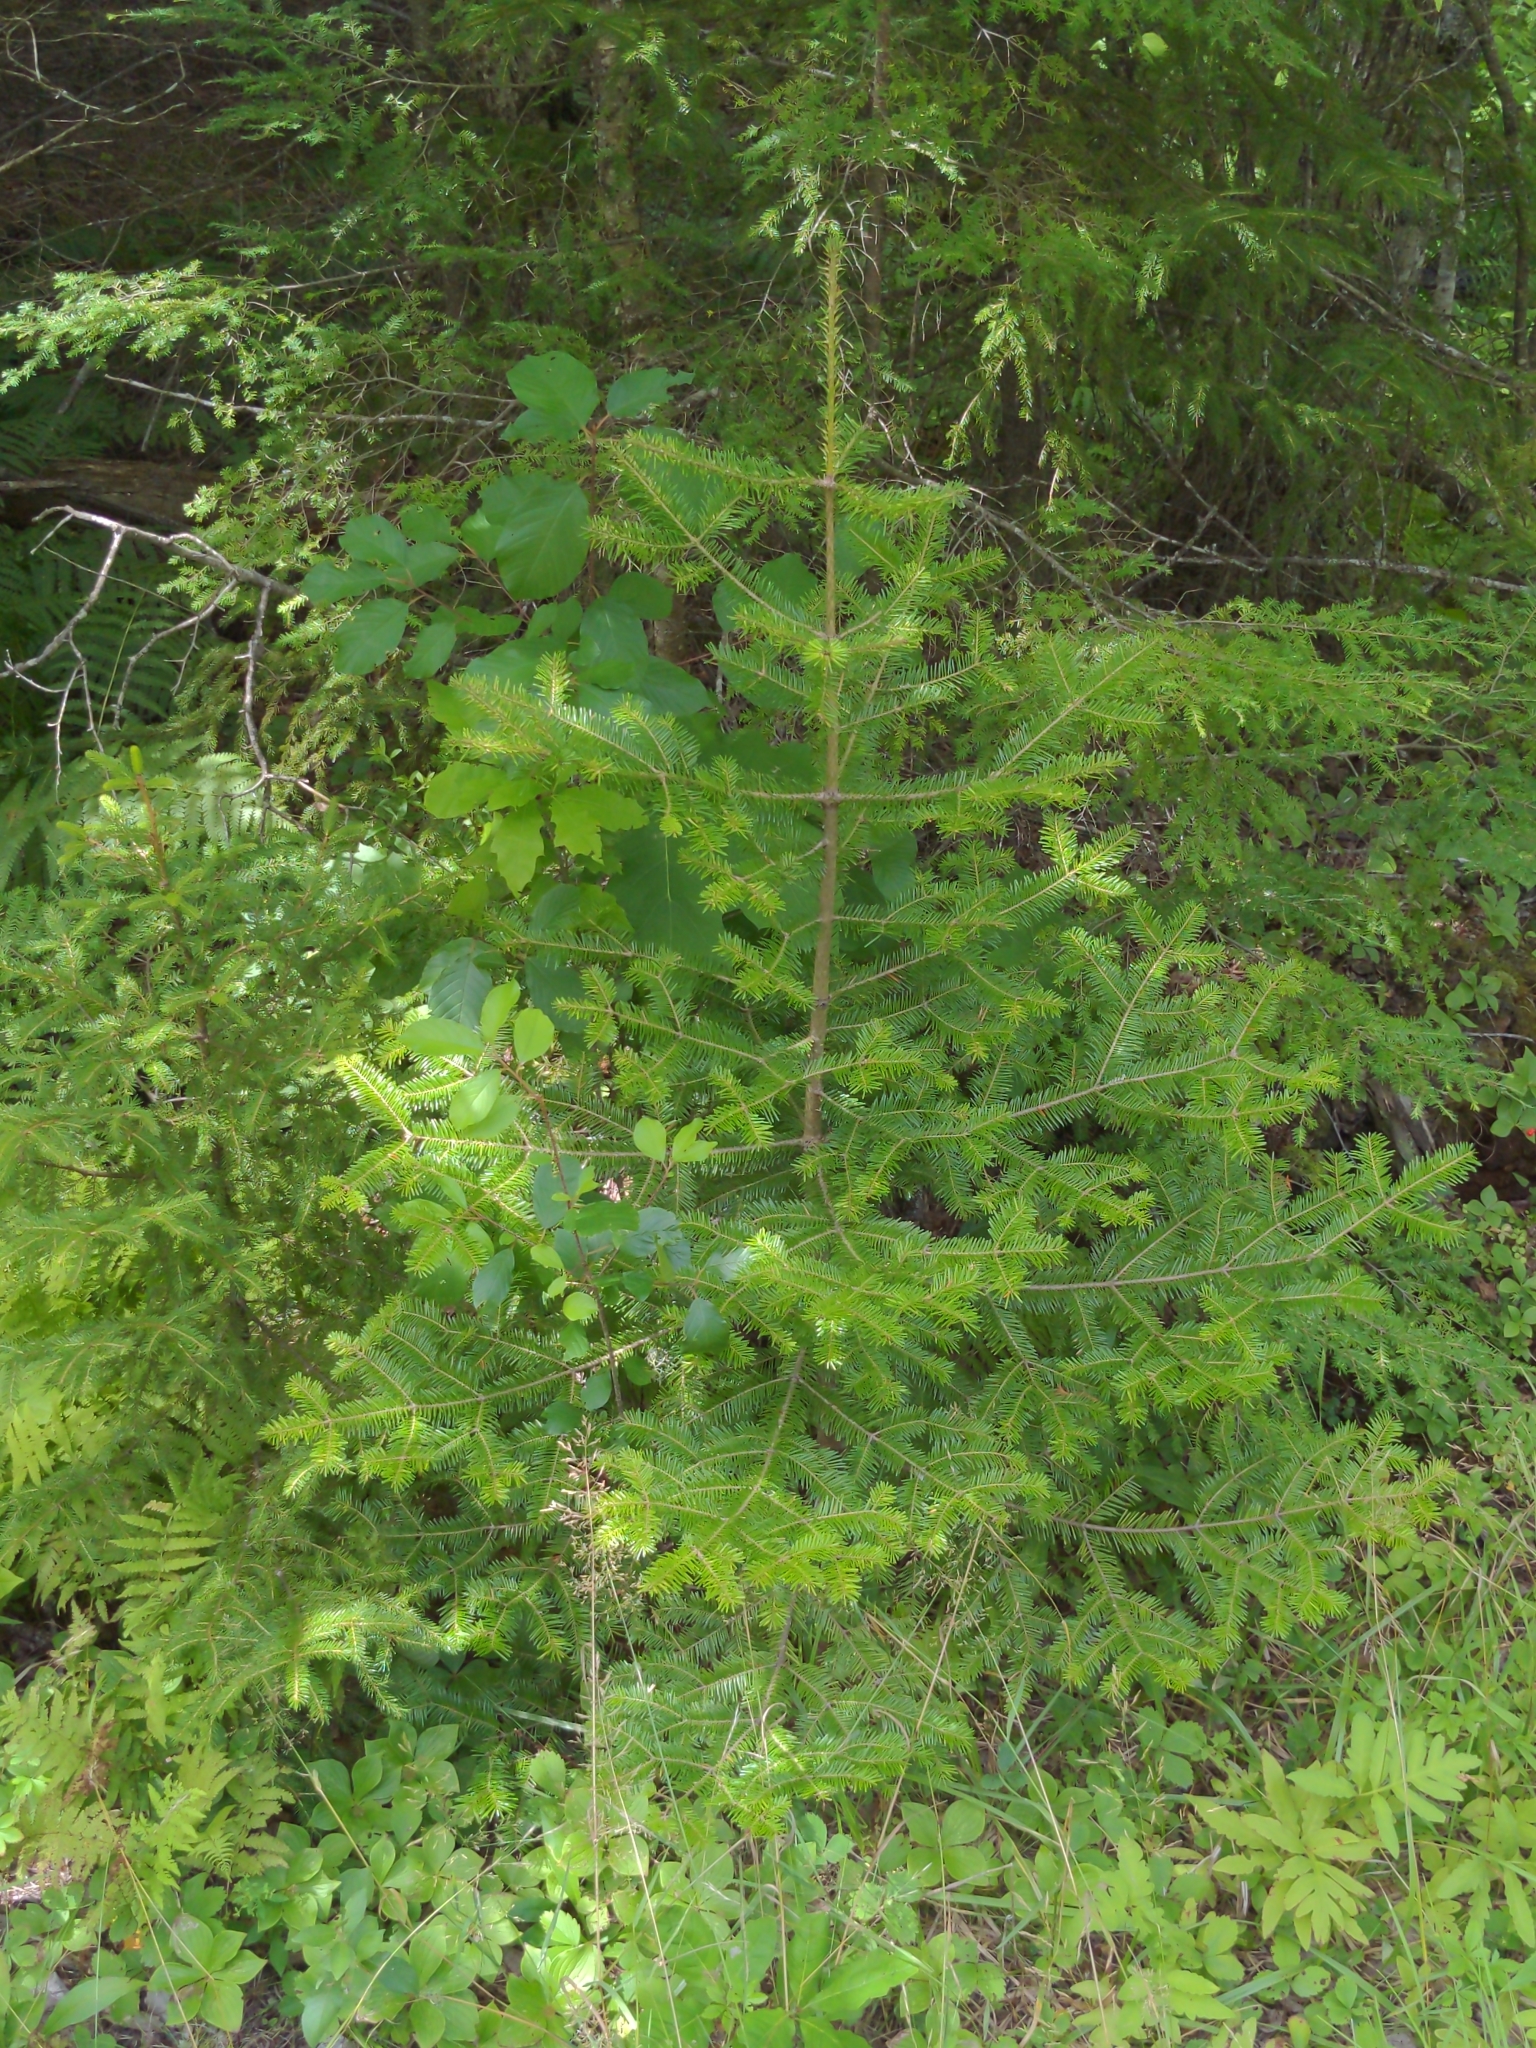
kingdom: Plantae
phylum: Tracheophyta
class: Pinopsida
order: Pinales
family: Pinaceae
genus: Abies
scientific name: Abies balsamea
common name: Balsam fir
